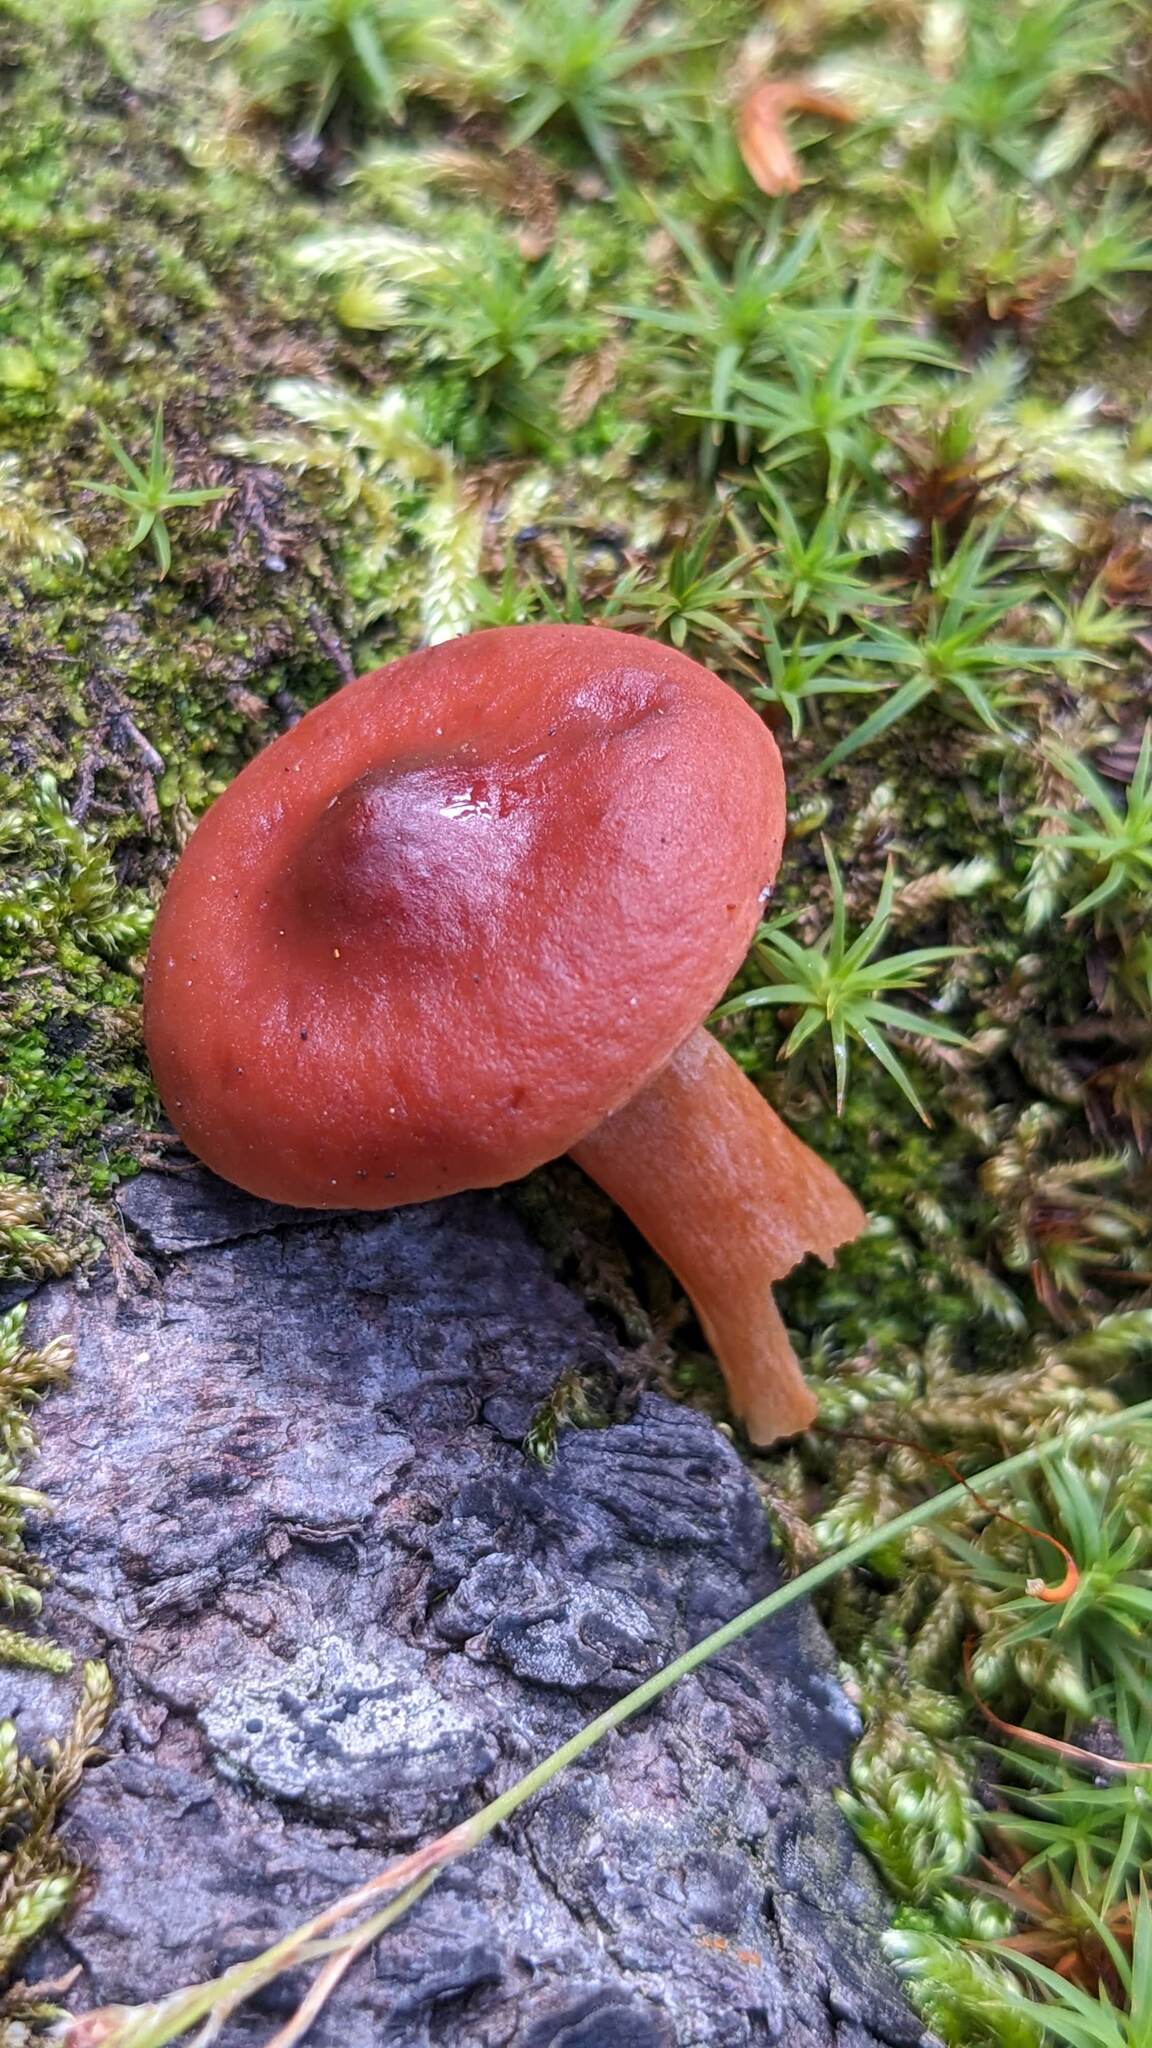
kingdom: Fungi
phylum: Basidiomycota
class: Agaricomycetes
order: Russulales
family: Russulaceae
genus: Lactarius
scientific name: Lactarius rufus
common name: Rufous milk-cap
